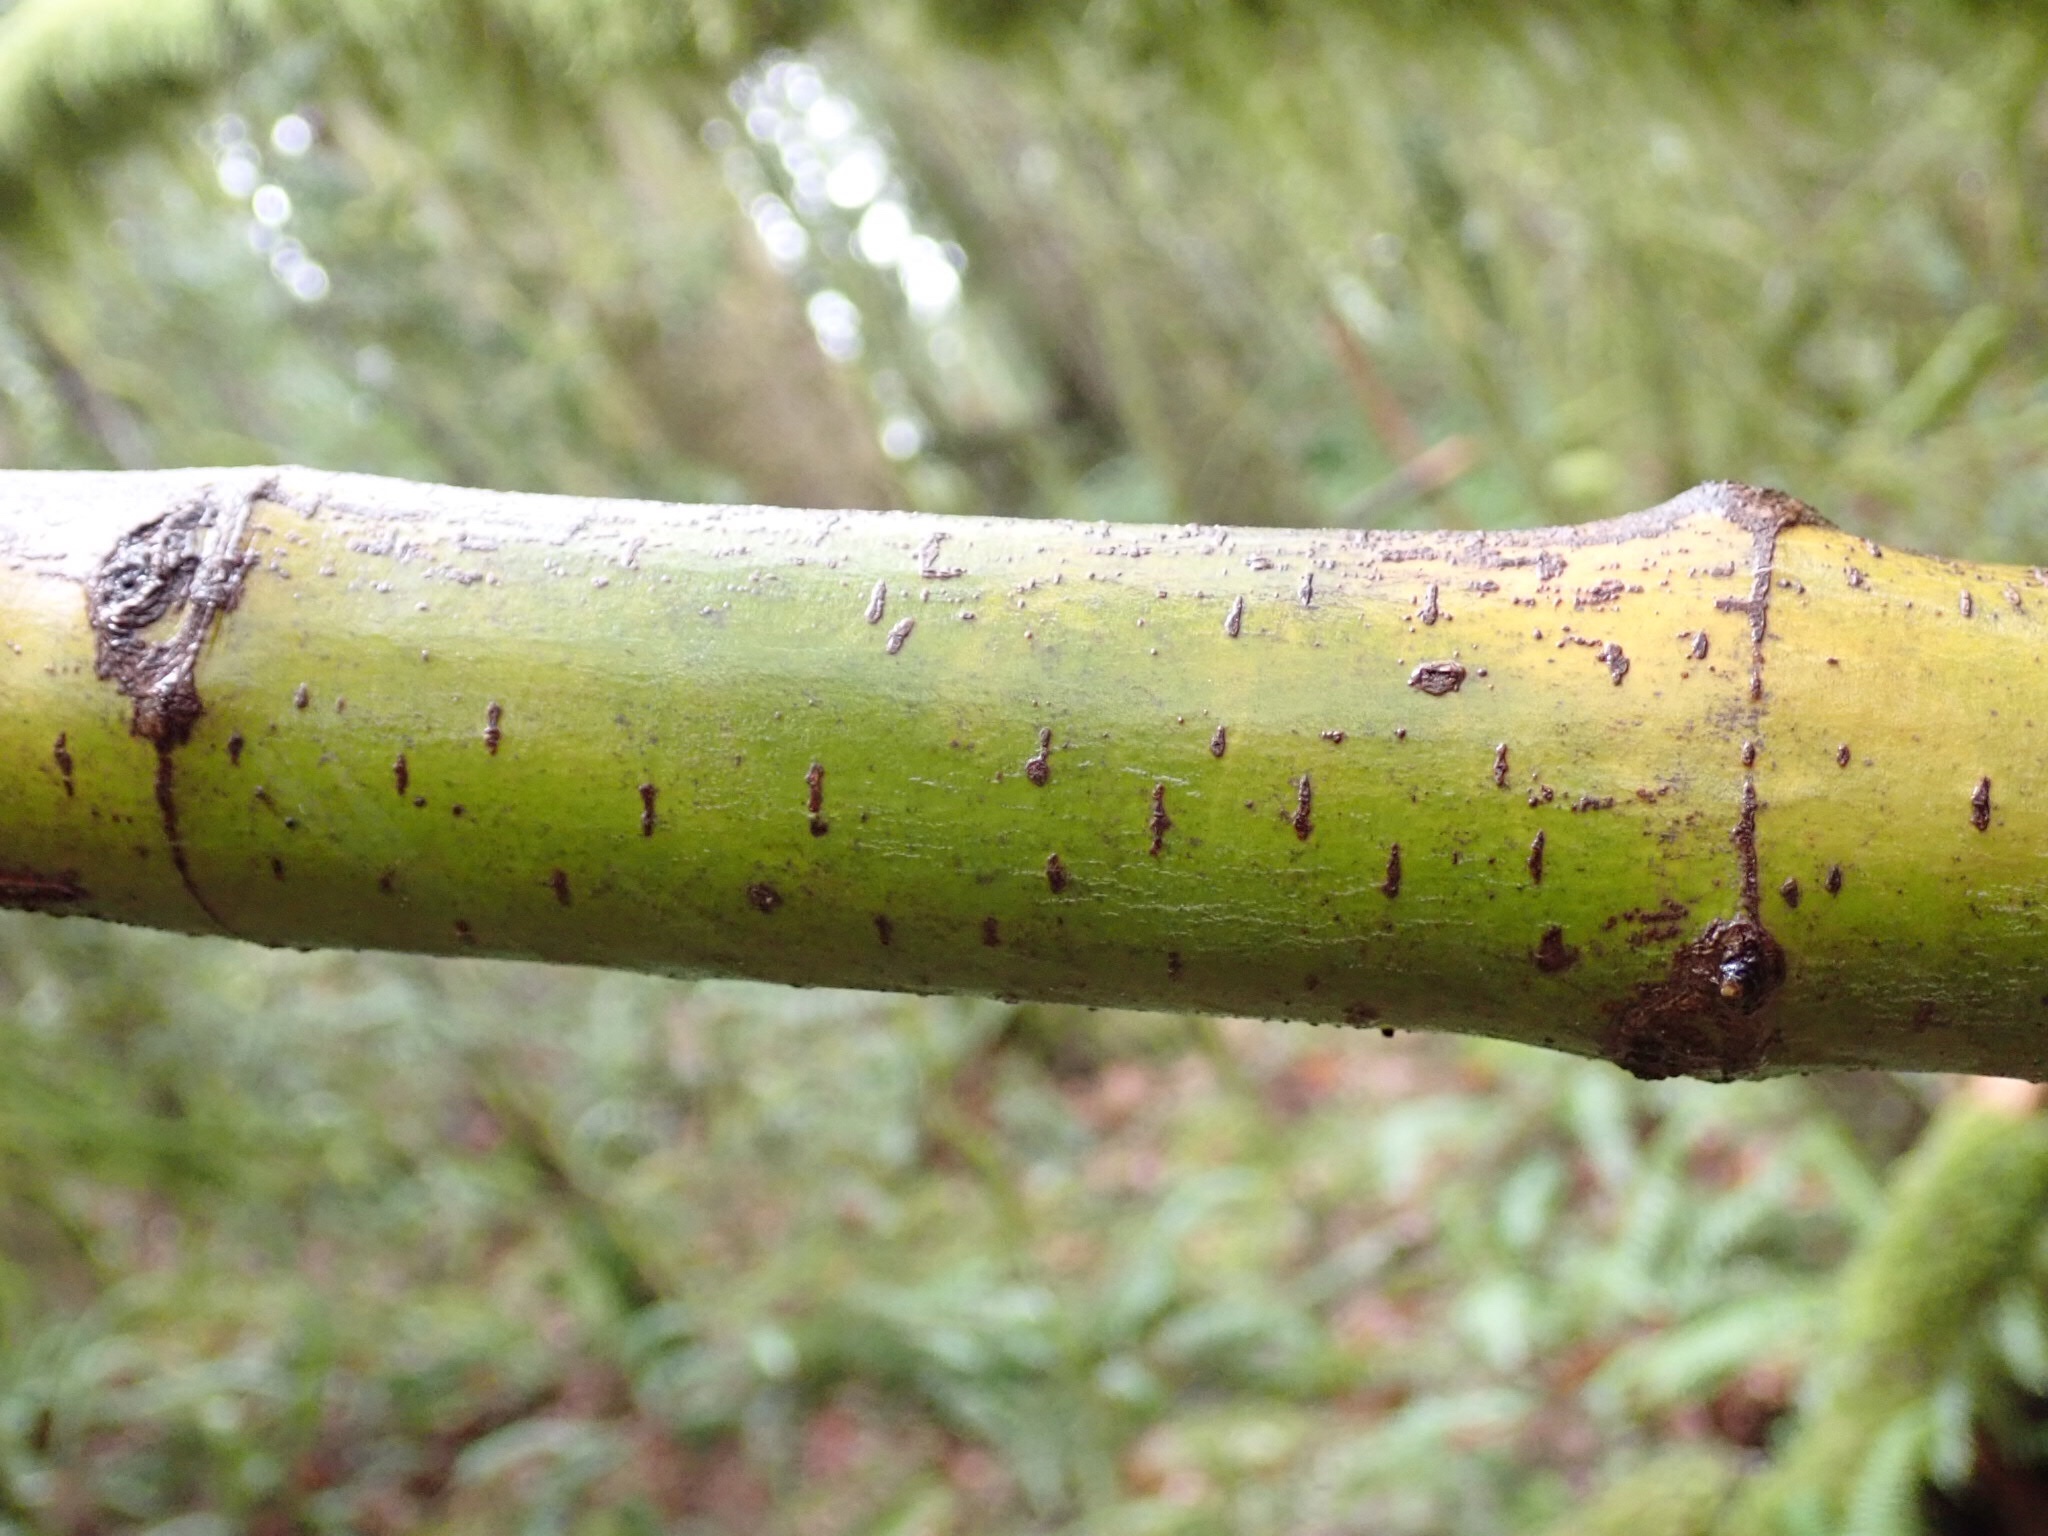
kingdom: Plantae
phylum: Tracheophyta
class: Magnoliopsida
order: Sapindales
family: Sapindaceae
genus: Acer
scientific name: Acer circinatum
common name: Vine maple
